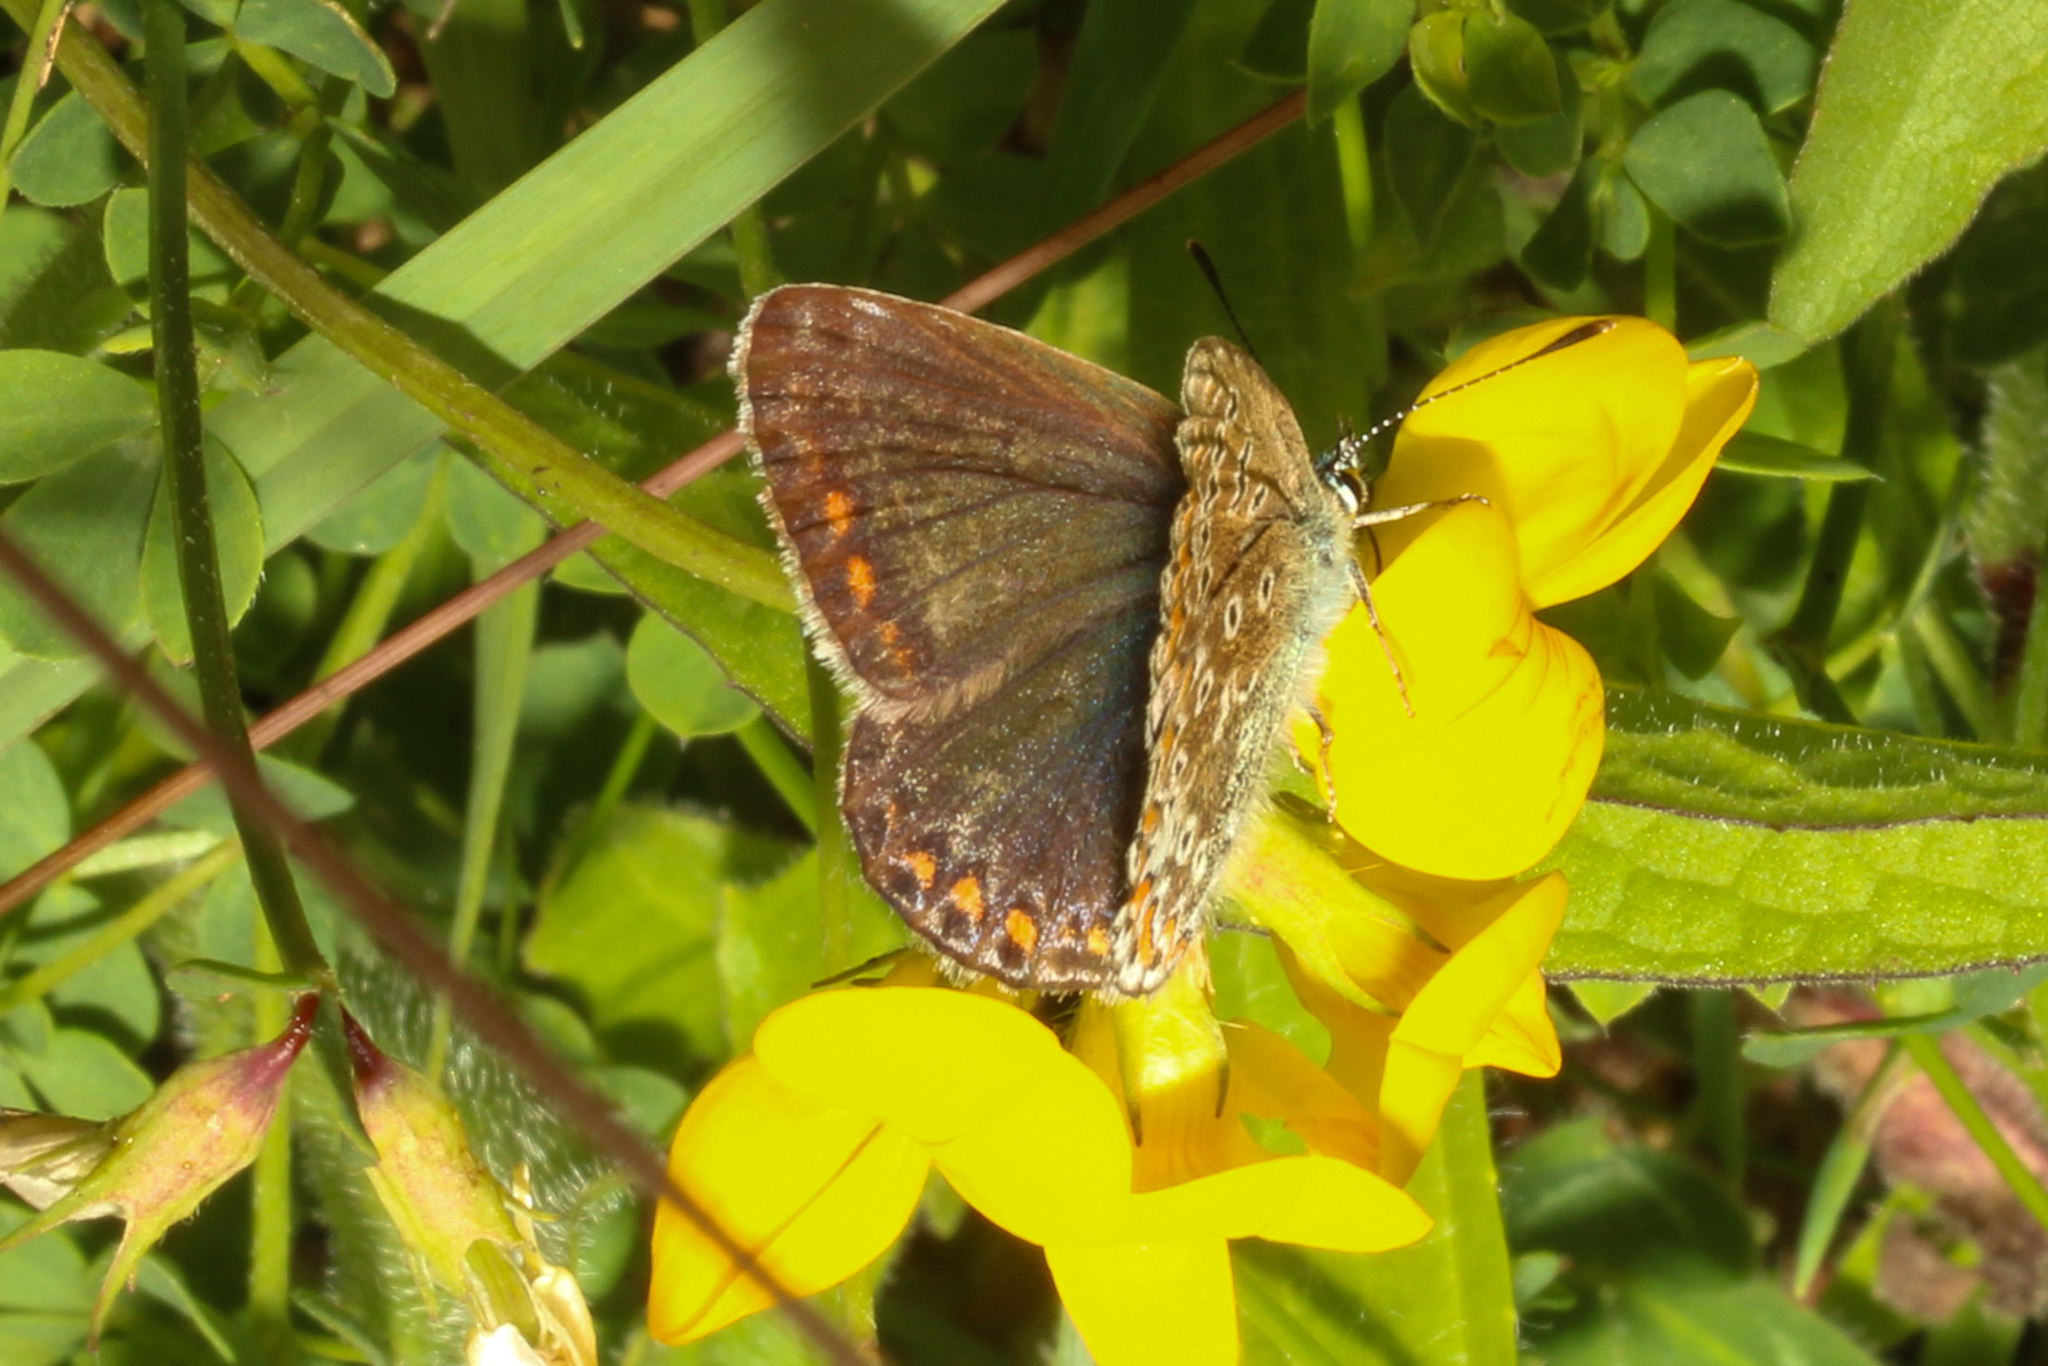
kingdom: Animalia
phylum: Arthropoda
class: Insecta
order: Lepidoptera
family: Lycaenidae
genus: Polyommatus
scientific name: Polyommatus icarus
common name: Common blue
